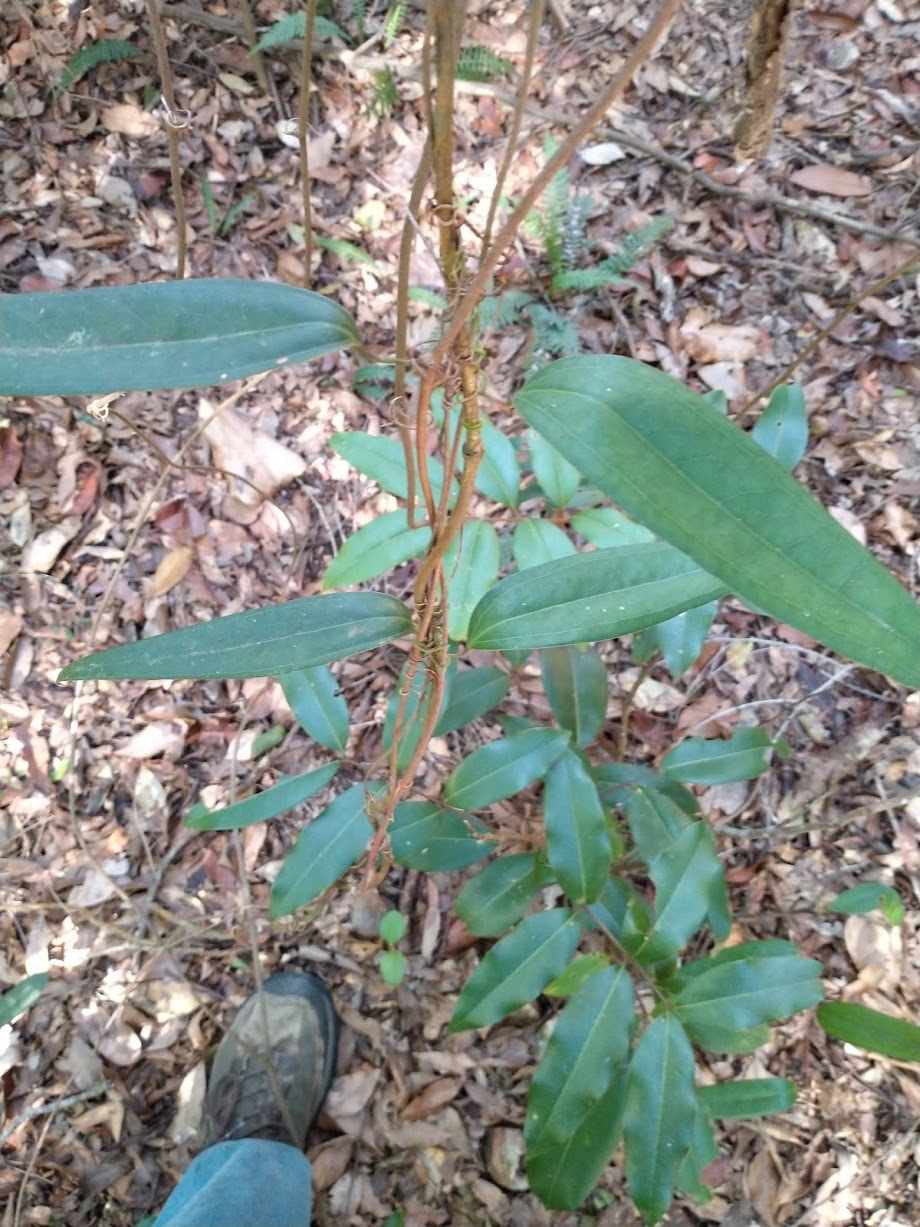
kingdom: Plantae
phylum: Tracheophyta
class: Liliopsida
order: Liliales
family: Smilacaceae
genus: Smilax
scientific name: Smilax glyciphylla
